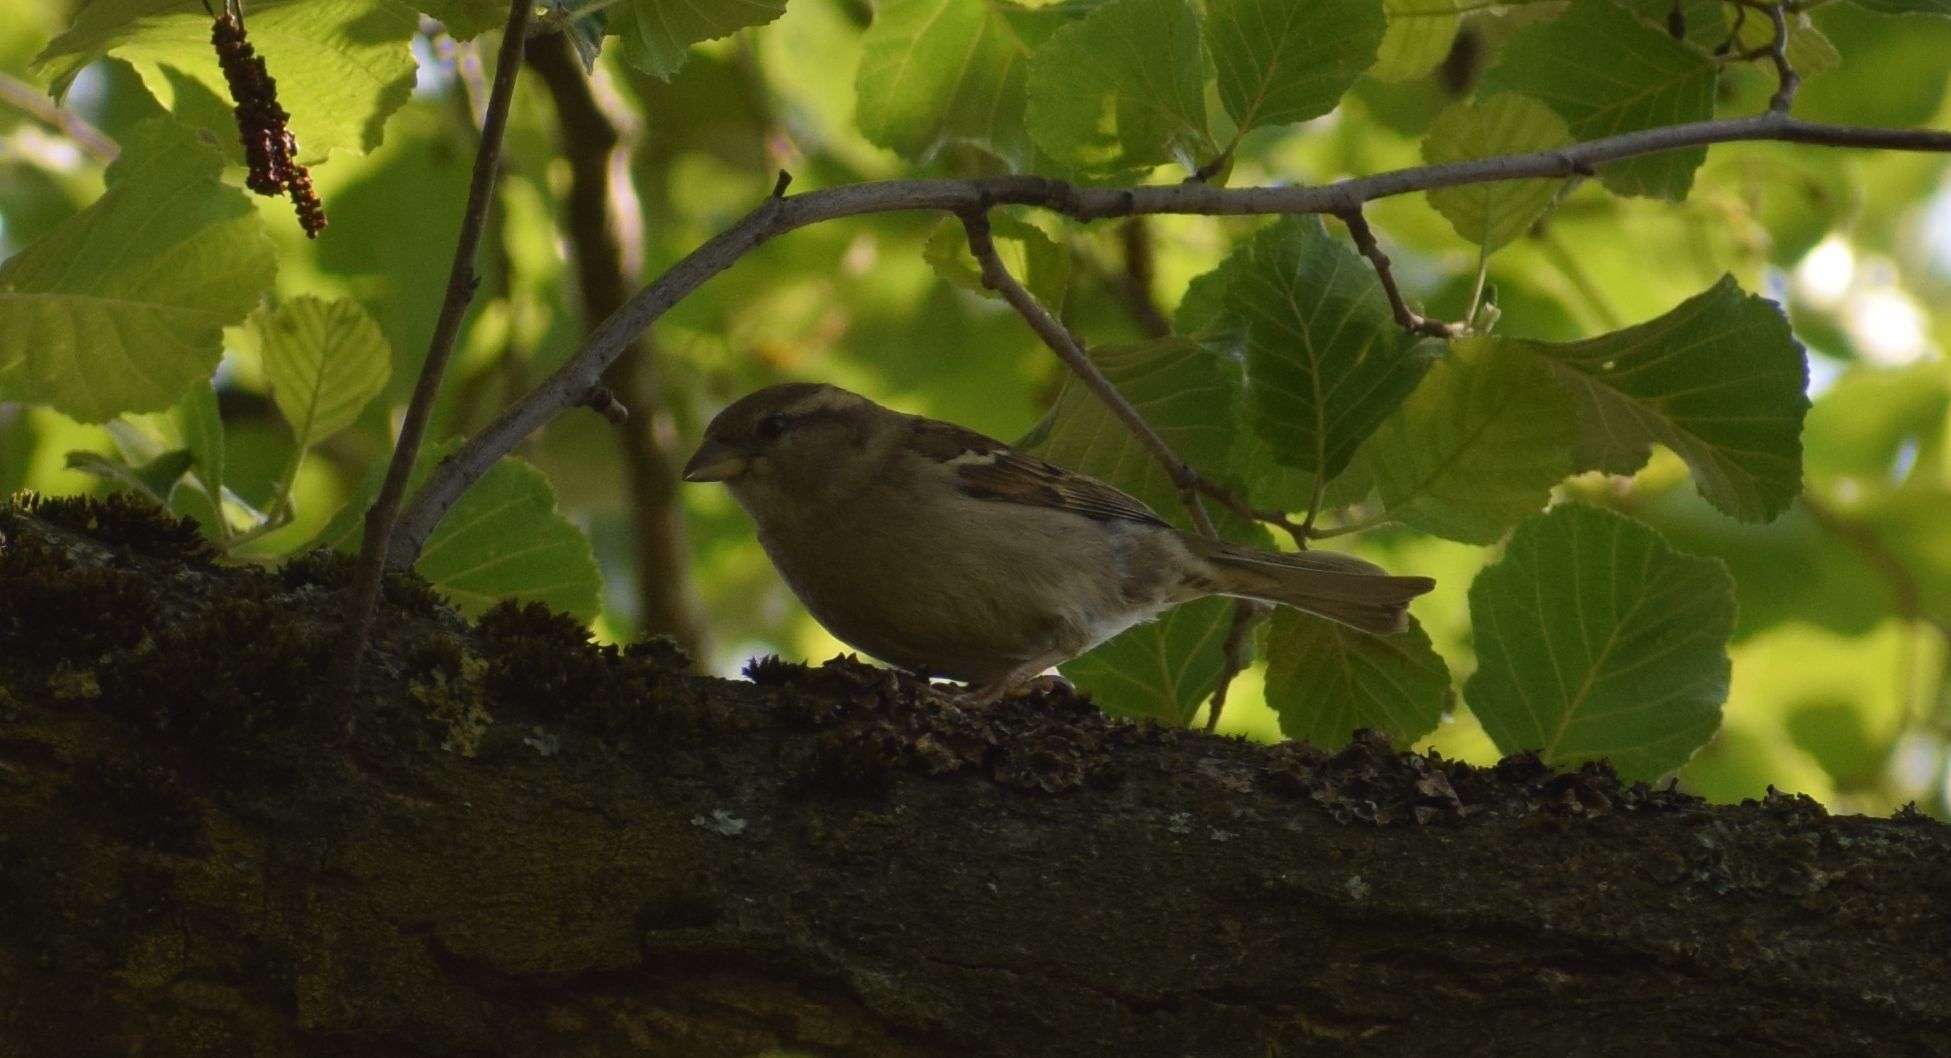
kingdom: Animalia
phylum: Chordata
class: Aves
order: Passeriformes
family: Passeridae
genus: Passer
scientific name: Passer domesticus
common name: House sparrow
